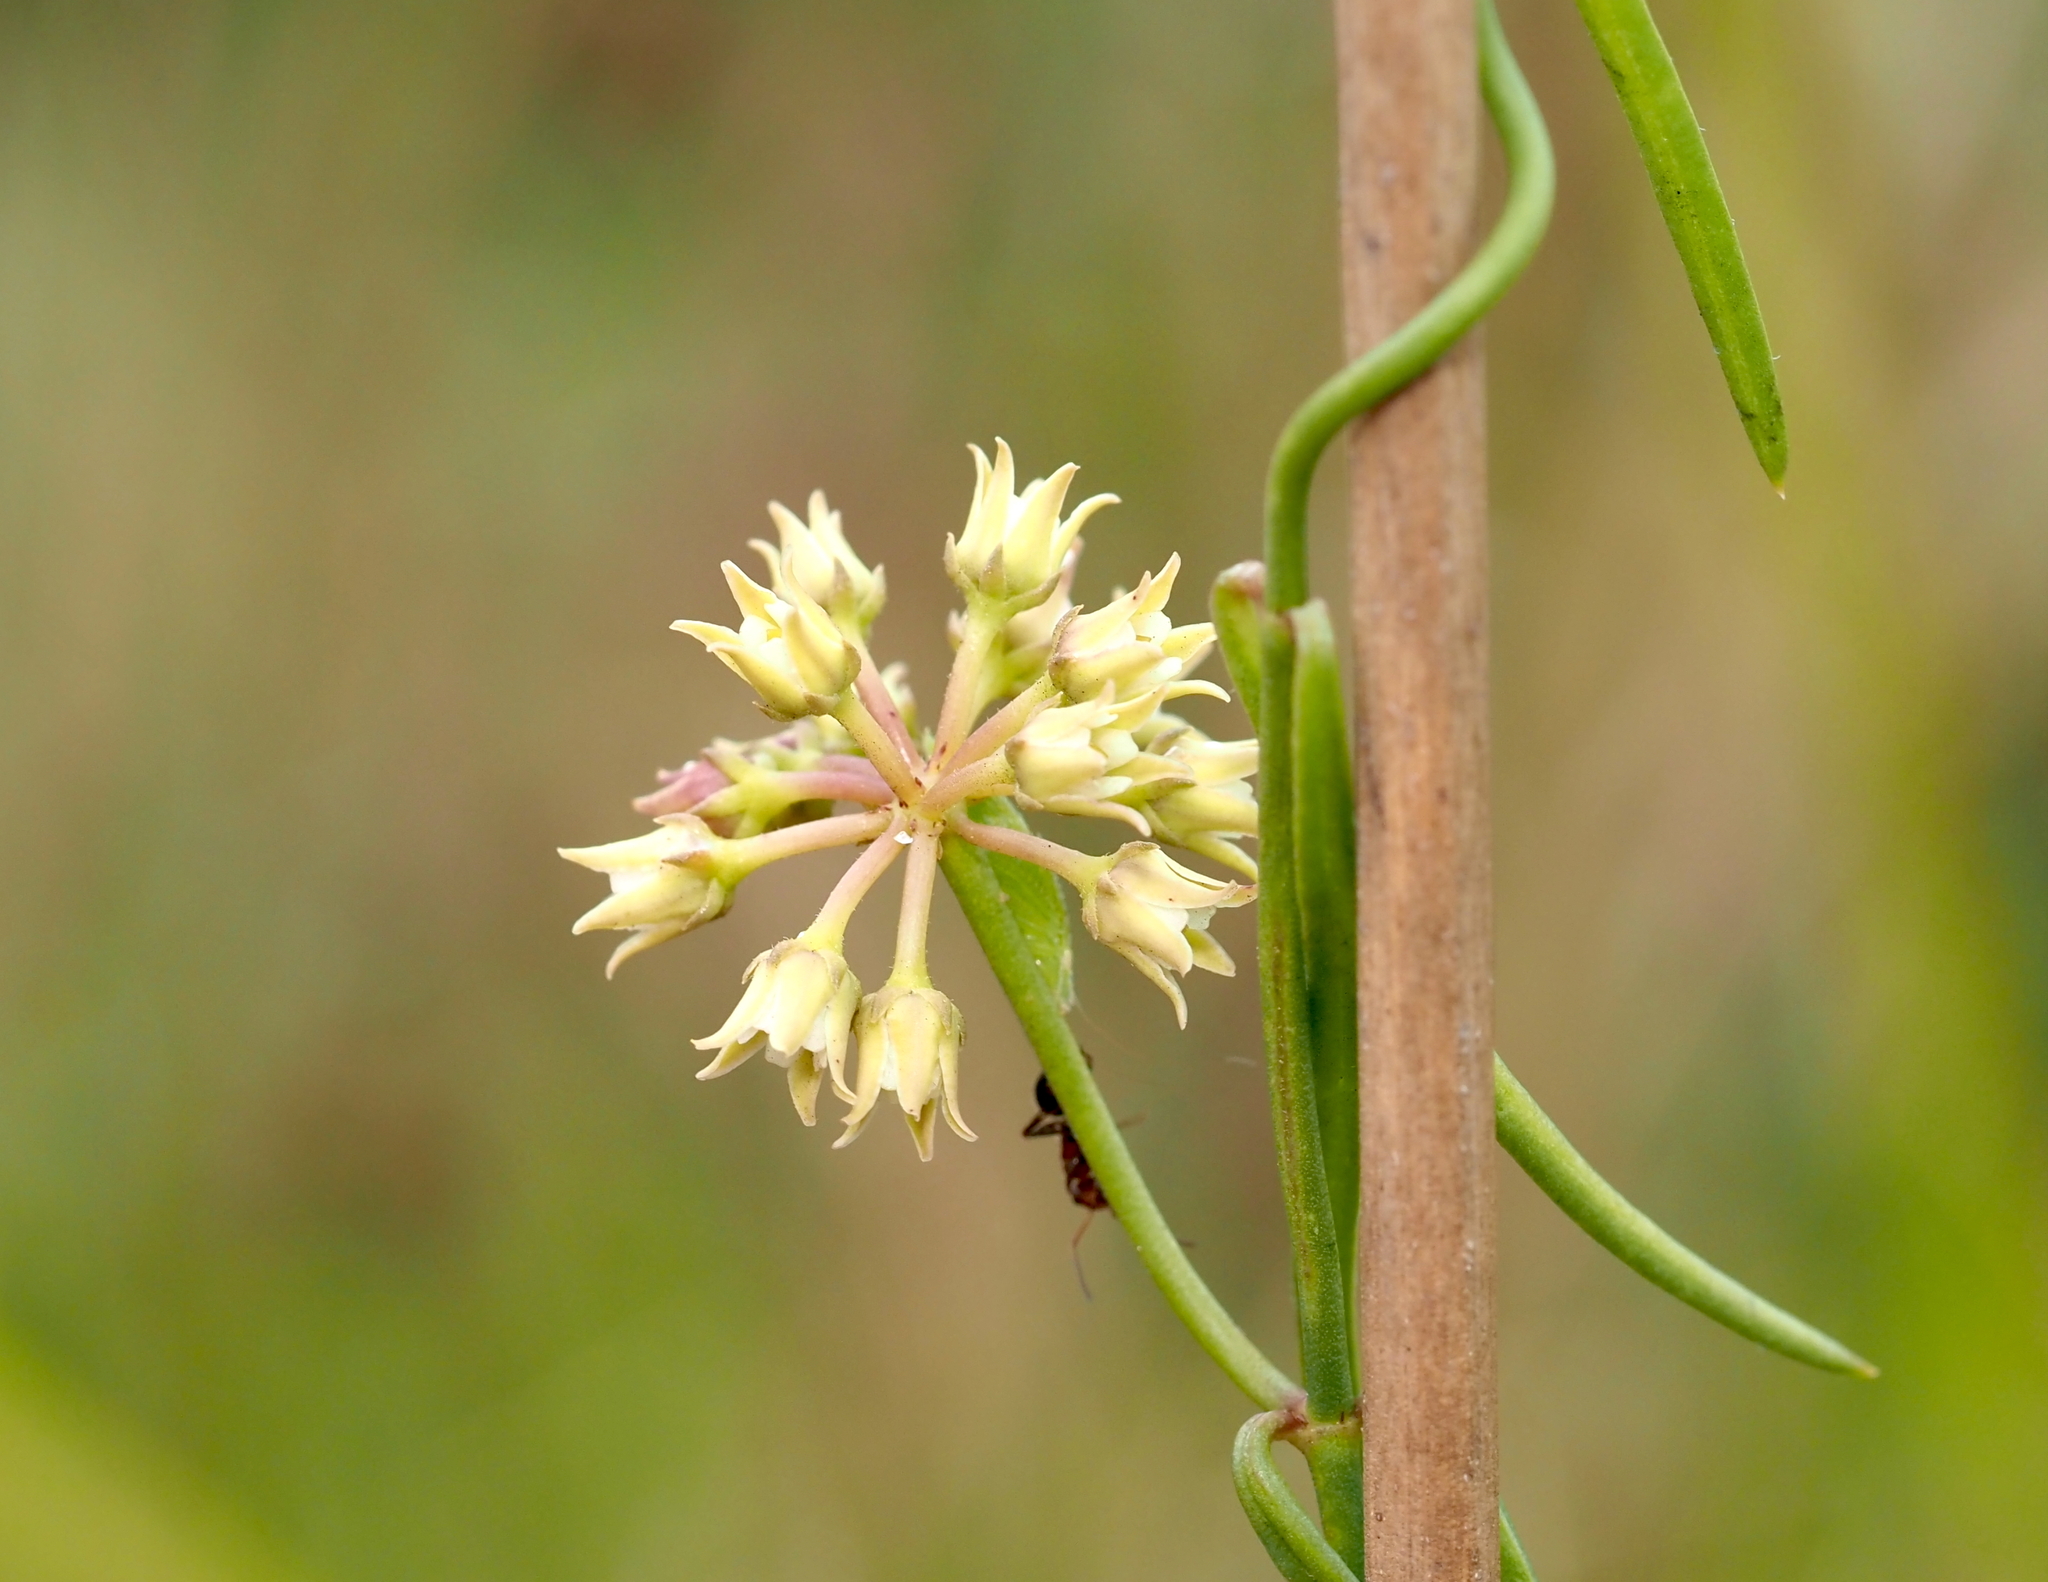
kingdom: Plantae
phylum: Tracheophyta
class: Magnoliopsida
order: Gentianales
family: Apocynaceae
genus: Pattalias
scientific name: Pattalias
